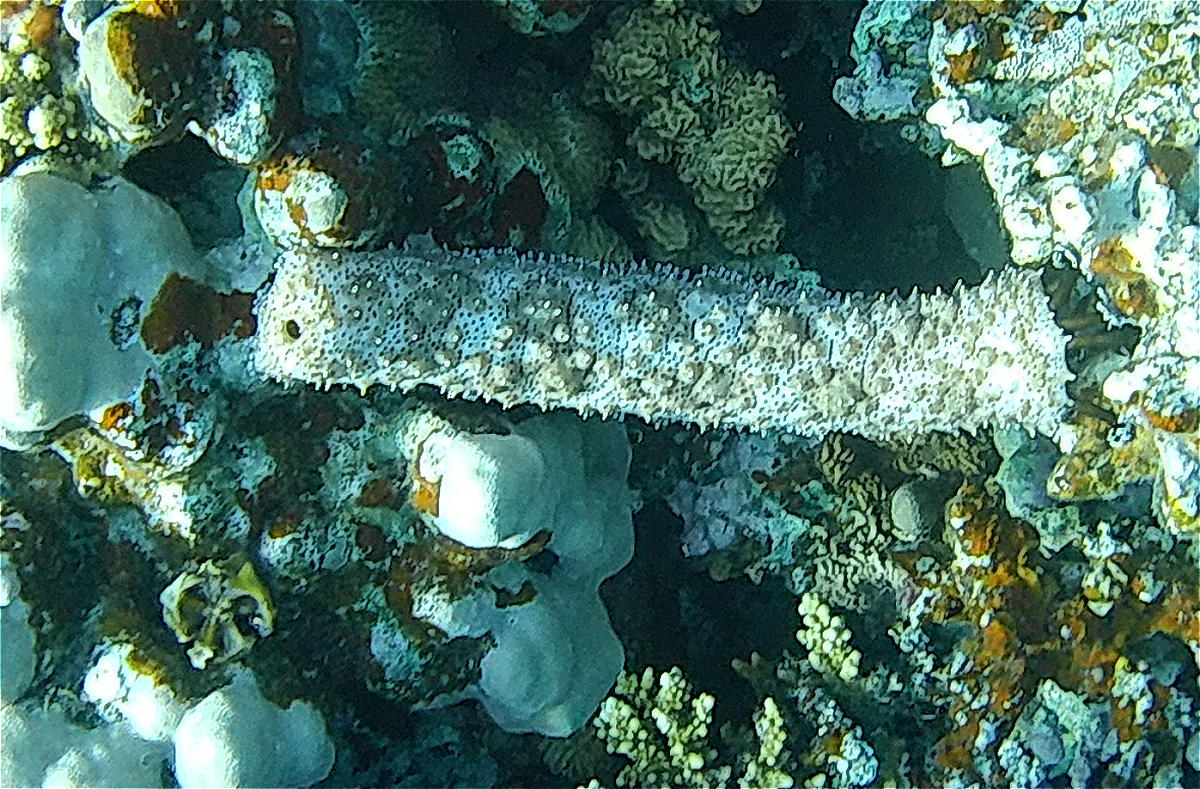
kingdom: Animalia
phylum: Echinodermata
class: Holothuroidea
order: Holothuriida
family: Holothuriidae
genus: Pearsonothuria
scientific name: Pearsonothuria graeffei
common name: Blackspotted sea cucumber
